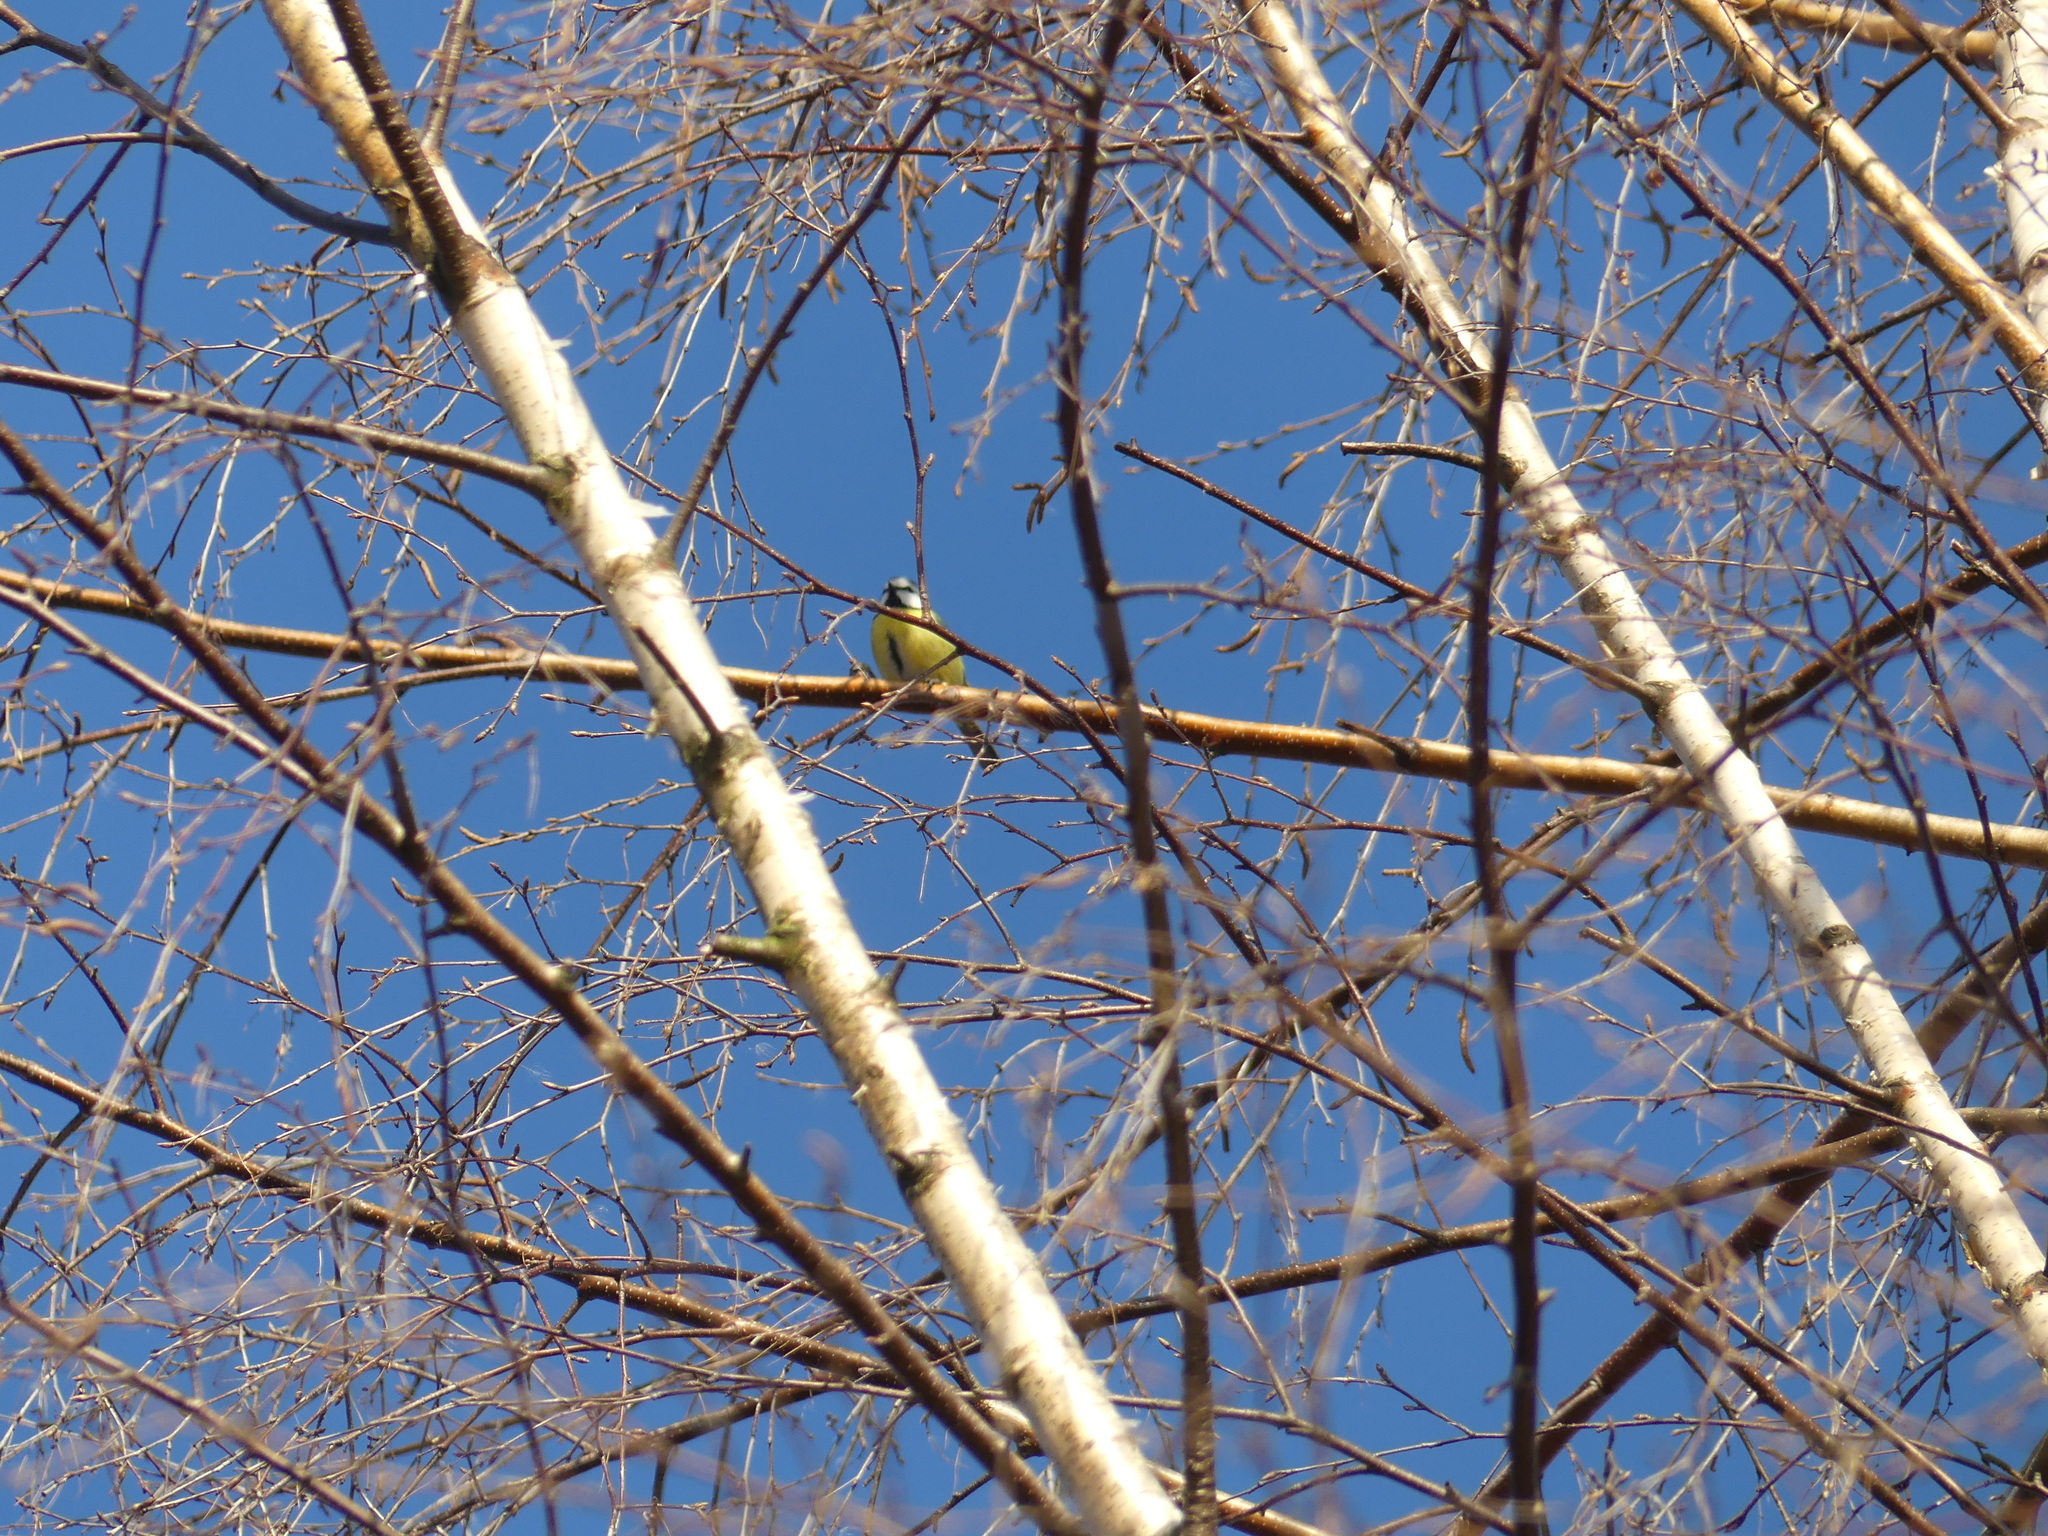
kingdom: Animalia
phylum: Chordata
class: Aves
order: Passeriformes
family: Paridae
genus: Cyanistes
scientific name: Cyanistes caeruleus
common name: Eurasian blue tit
